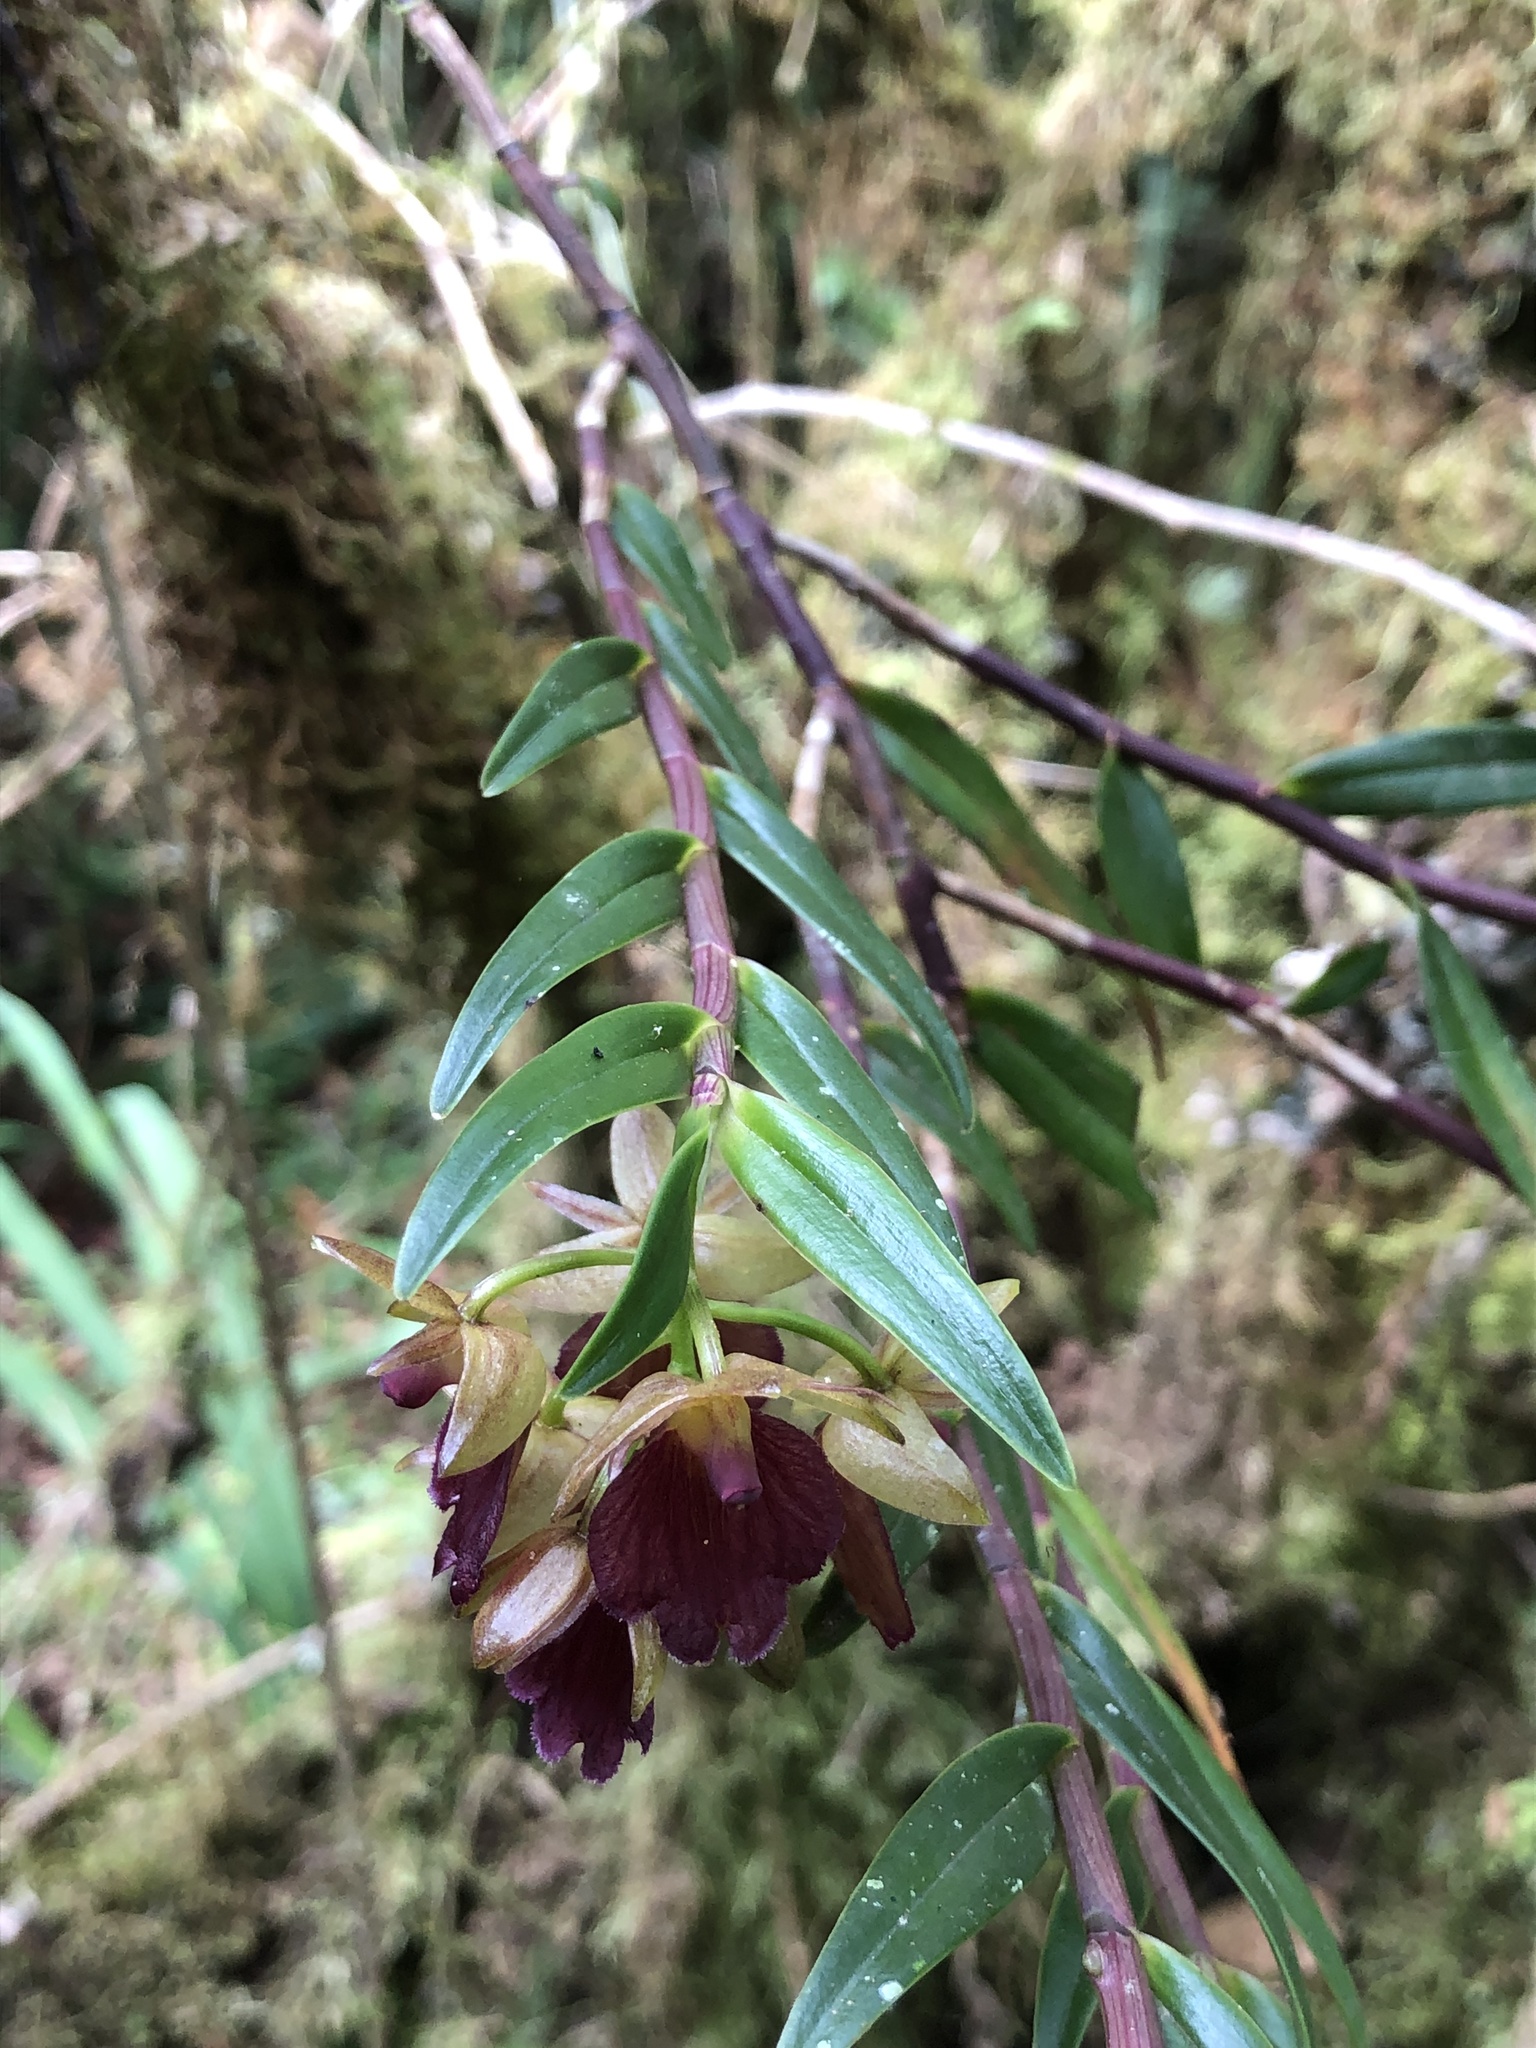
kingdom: Plantae
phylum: Tracheophyta
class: Liliopsida
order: Asparagales
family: Orchidaceae
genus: Epidendrum
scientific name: Epidendrum cleistocoleum
